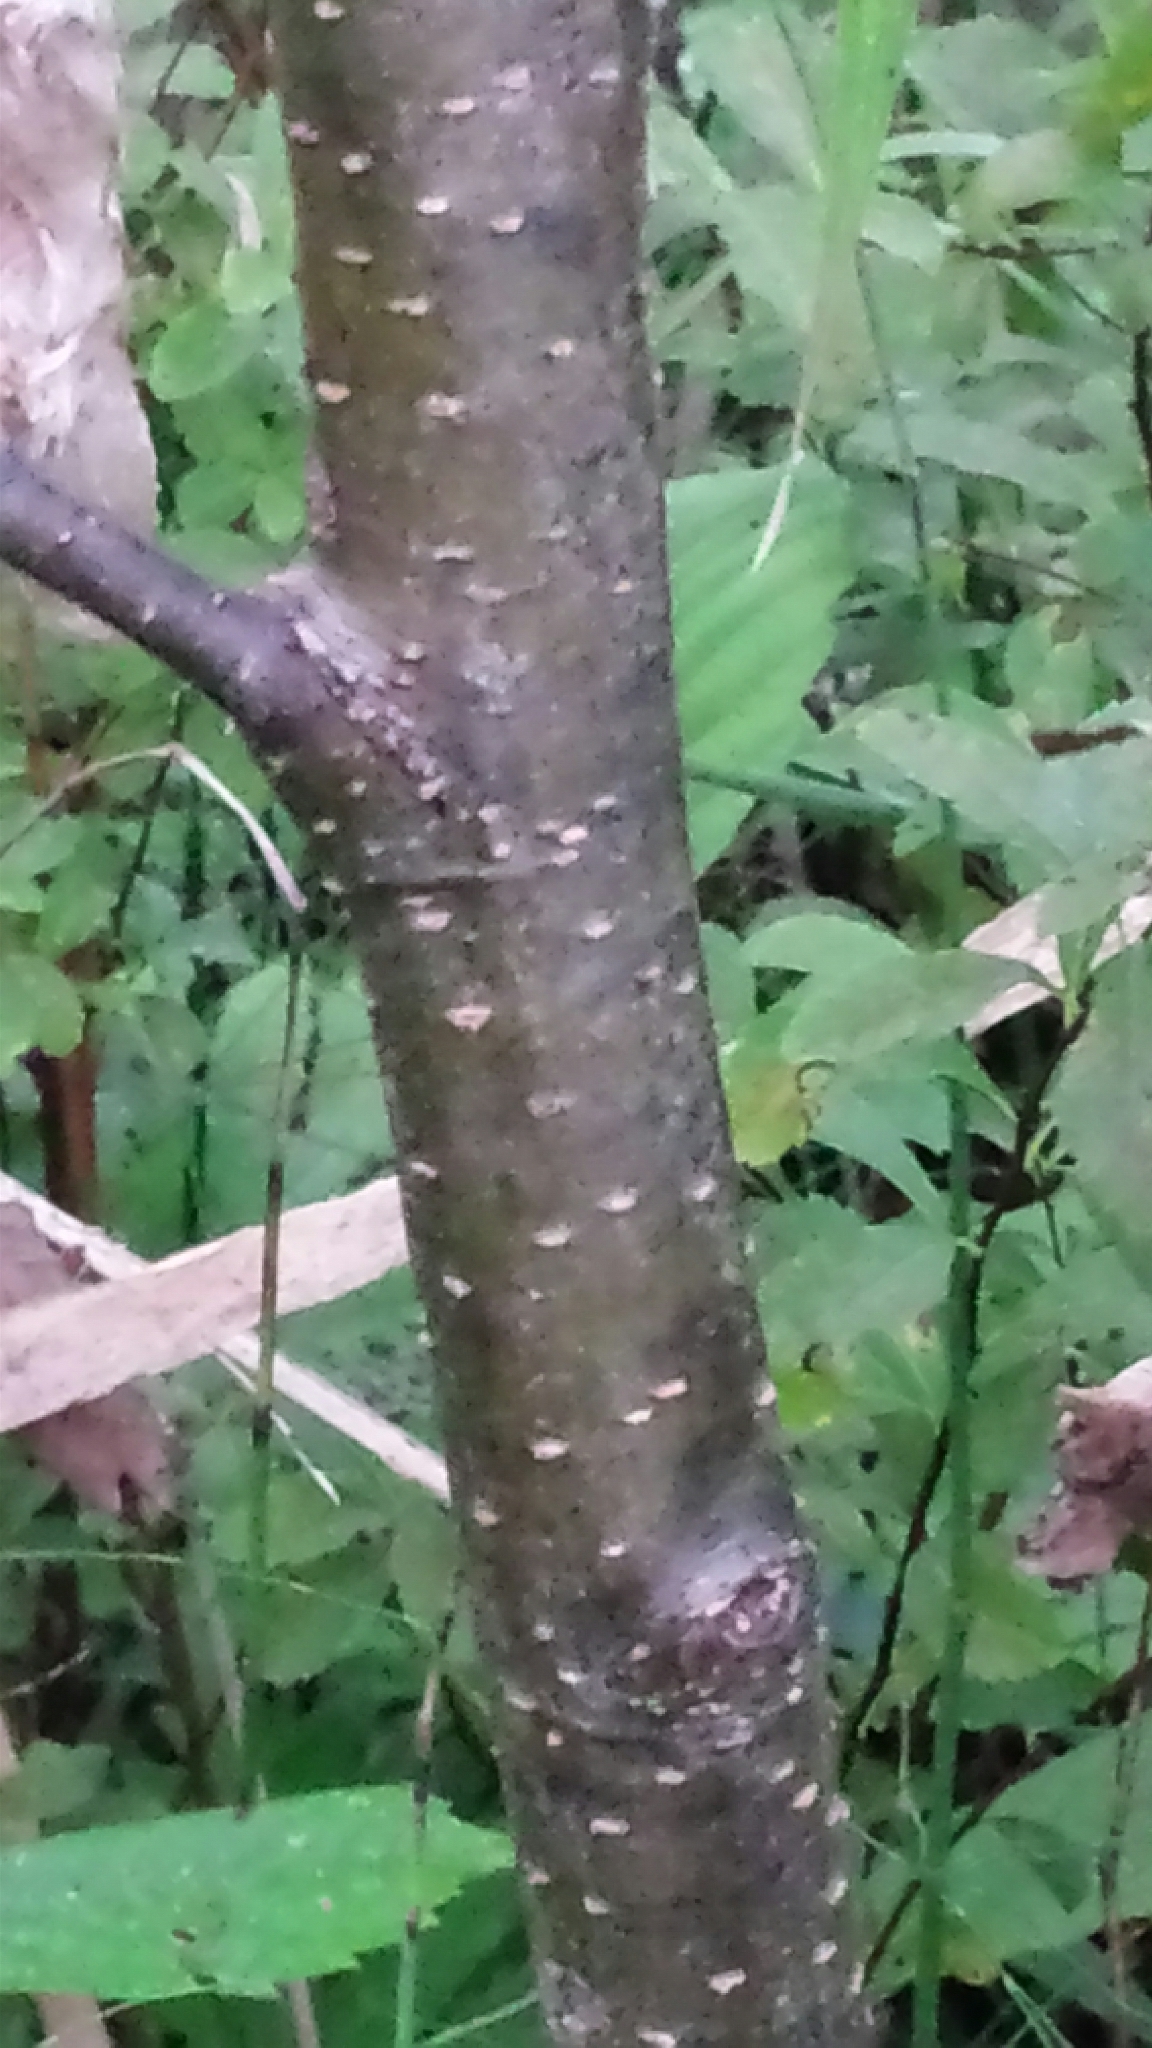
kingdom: Plantae
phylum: Tracheophyta
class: Magnoliopsida
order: Fagales
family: Betulaceae
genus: Alnus
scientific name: Alnus incana
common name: Grey alder
